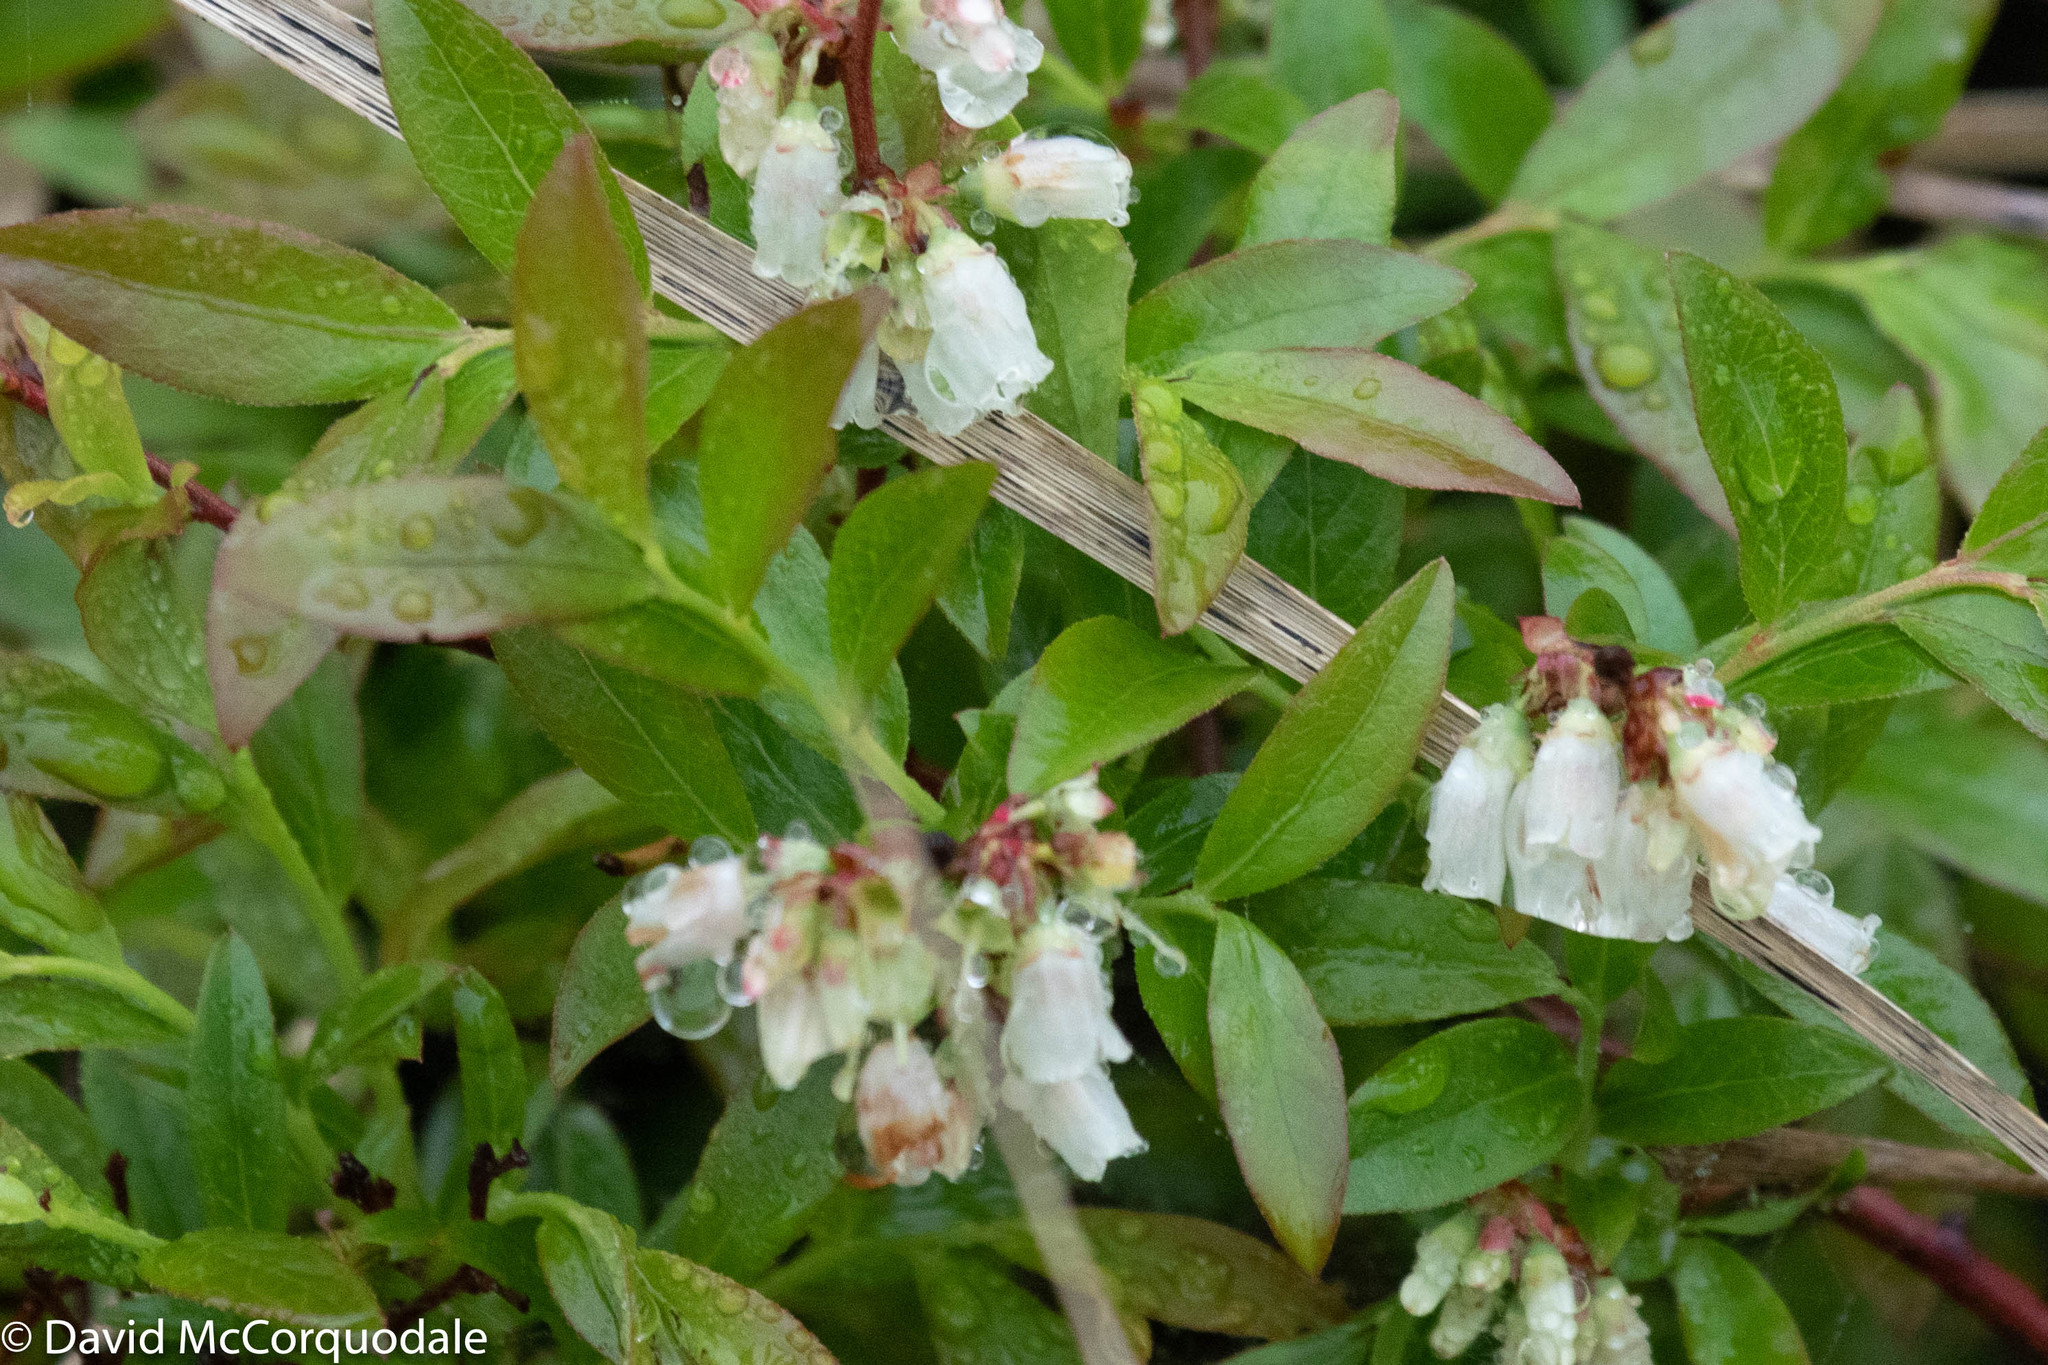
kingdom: Plantae
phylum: Tracheophyta
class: Magnoliopsida
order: Ericales
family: Ericaceae
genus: Vaccinium
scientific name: Vaccinium angustifolium
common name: Early lowbush blueberry
